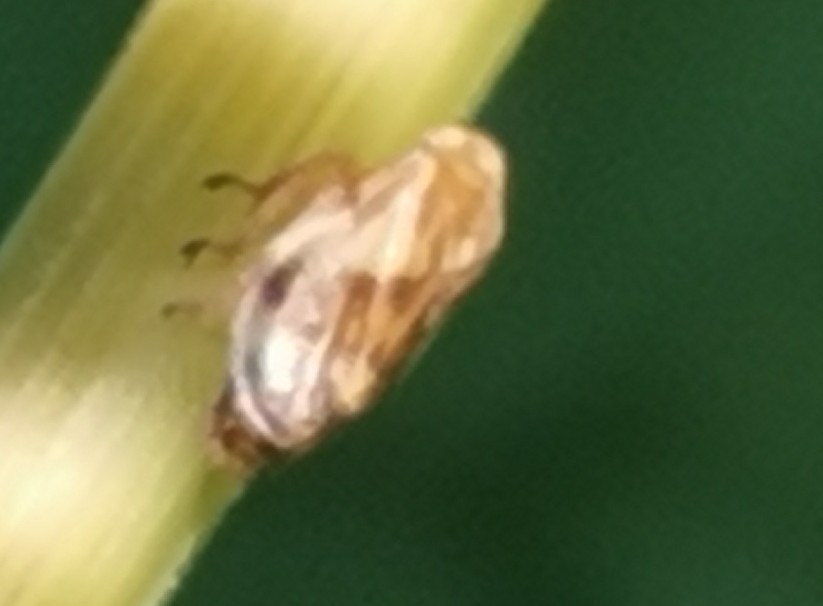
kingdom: Animalia
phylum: Arthropoda
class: Insecta
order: Hemiptera
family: Aphrophoridae
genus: Philaenus
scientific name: Philaenus spumarius
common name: Meadow spittlebug
